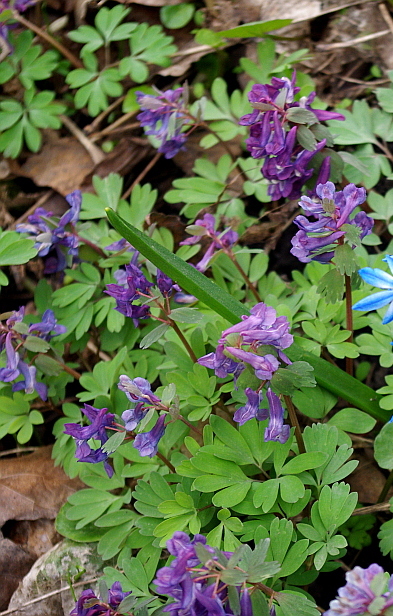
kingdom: Plantae
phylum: Tracheophyta
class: Magnoliopsida
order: Ranunculales
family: Papaveraceae
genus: Corydalis
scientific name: Corydalis solida
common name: Bird-in-a-bush
